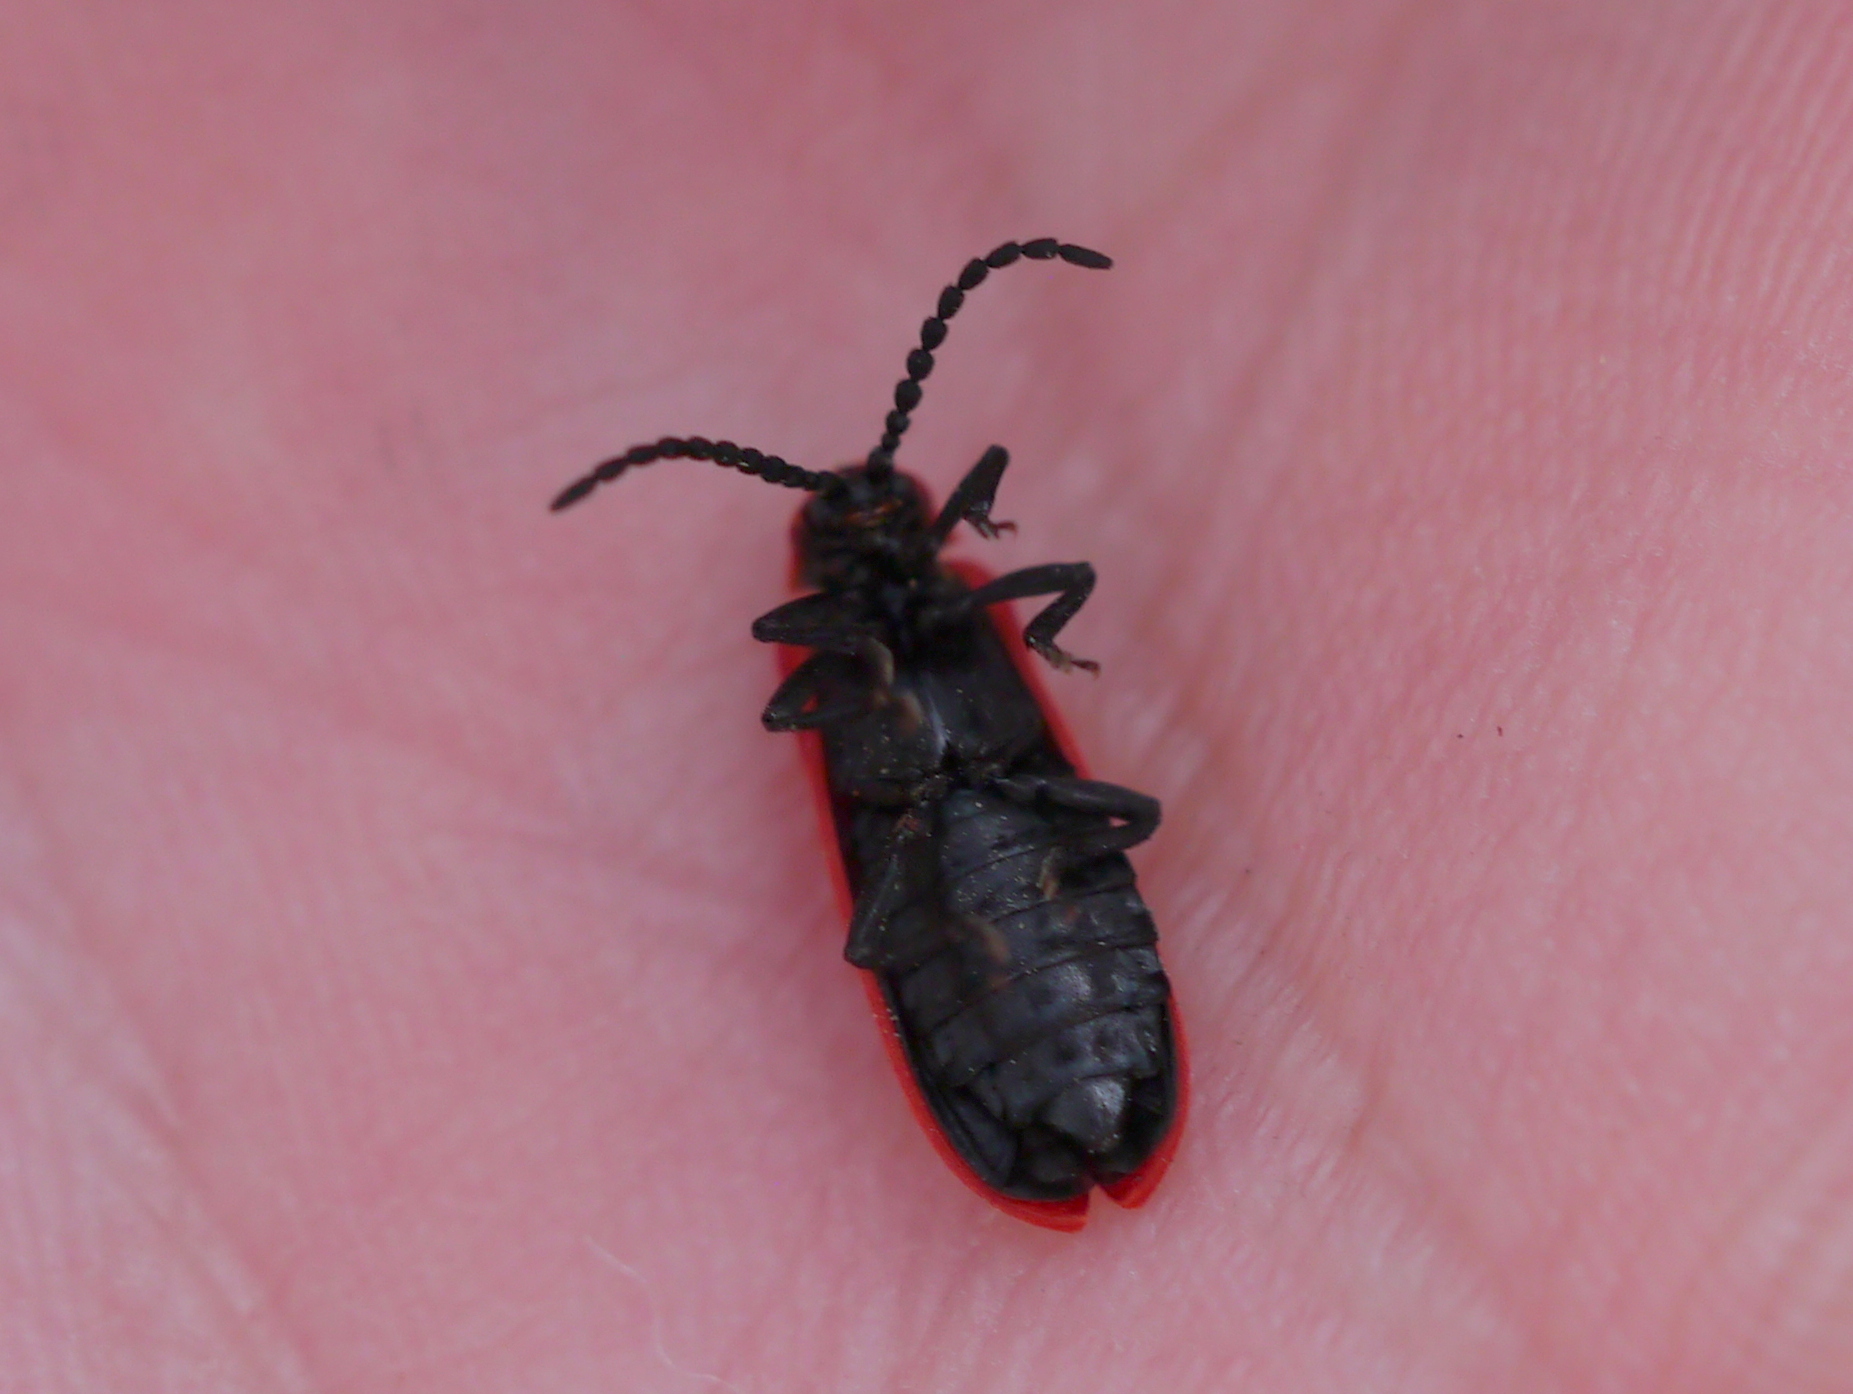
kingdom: Animalia
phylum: Arthropoda
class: Insecta
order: Coleoptera
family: Lycidae
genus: Dictyoptera
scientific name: Dictyoptera aurora
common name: Golden net-winged beetle
